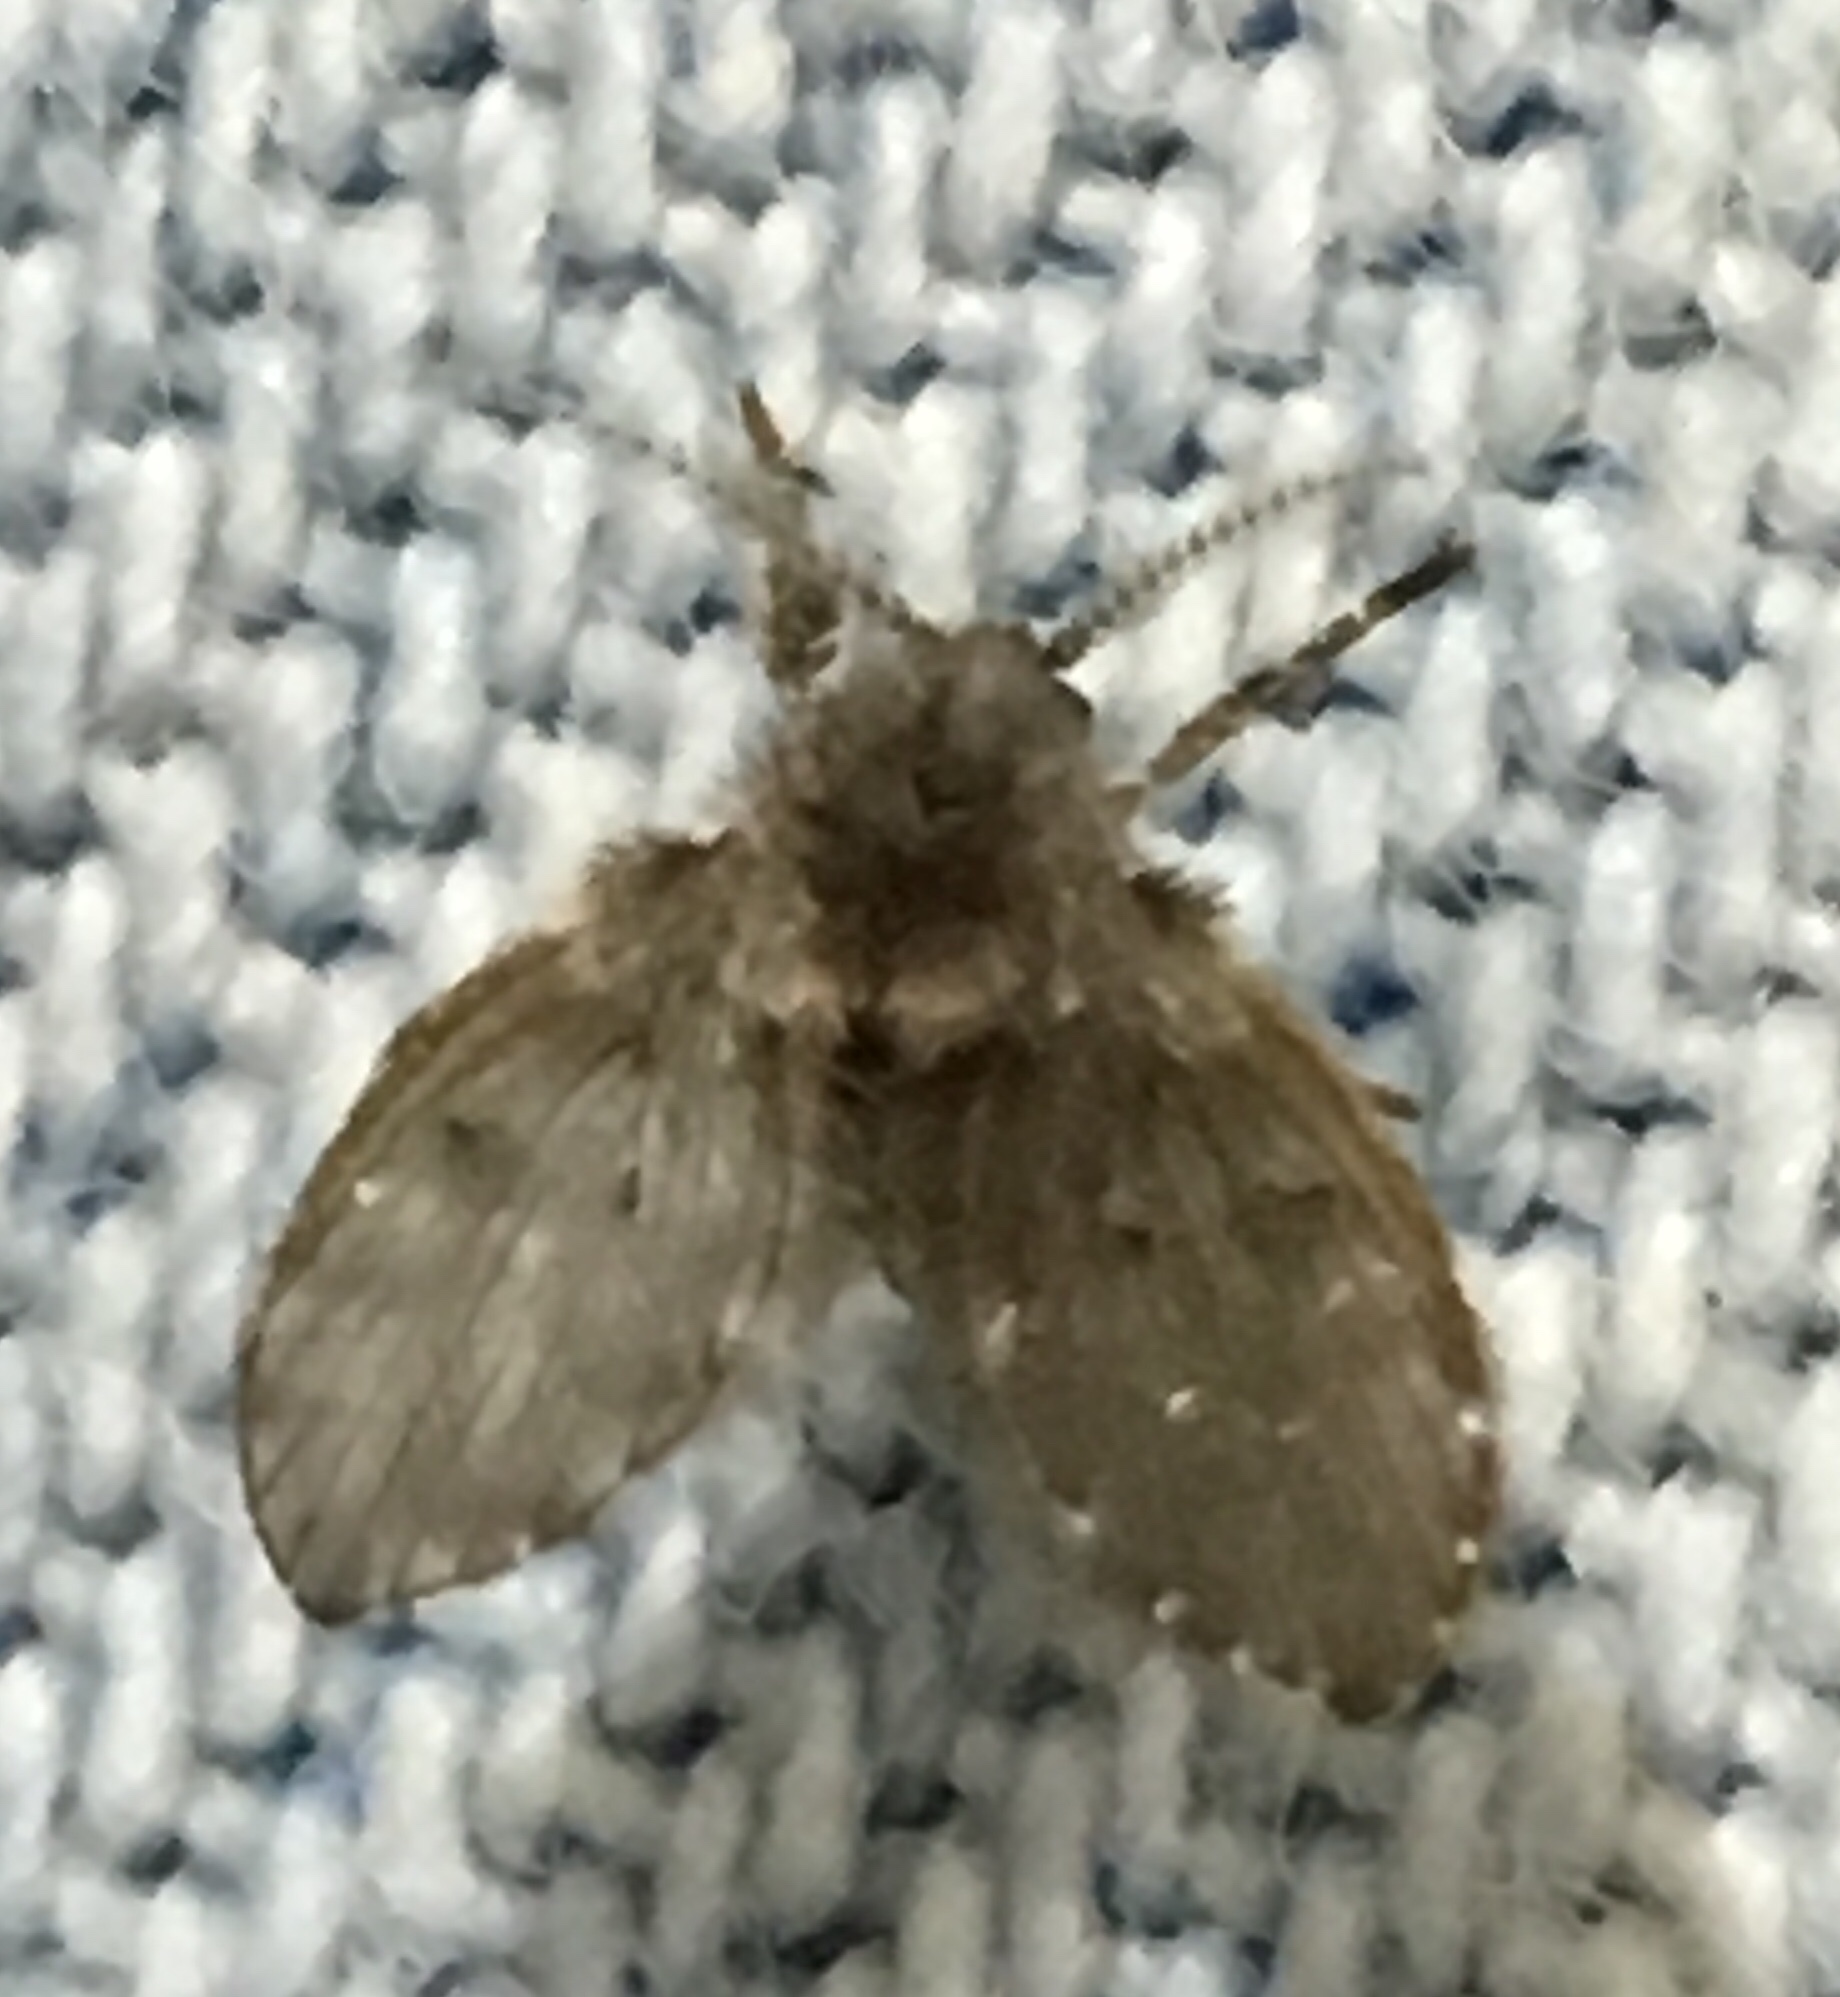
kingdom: Animalia
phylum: Arthropoda
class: Insecta
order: Diptera
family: Psychodidae
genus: Clogmia
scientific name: Clogmia albipunctatus
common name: White-spotted moth fly
